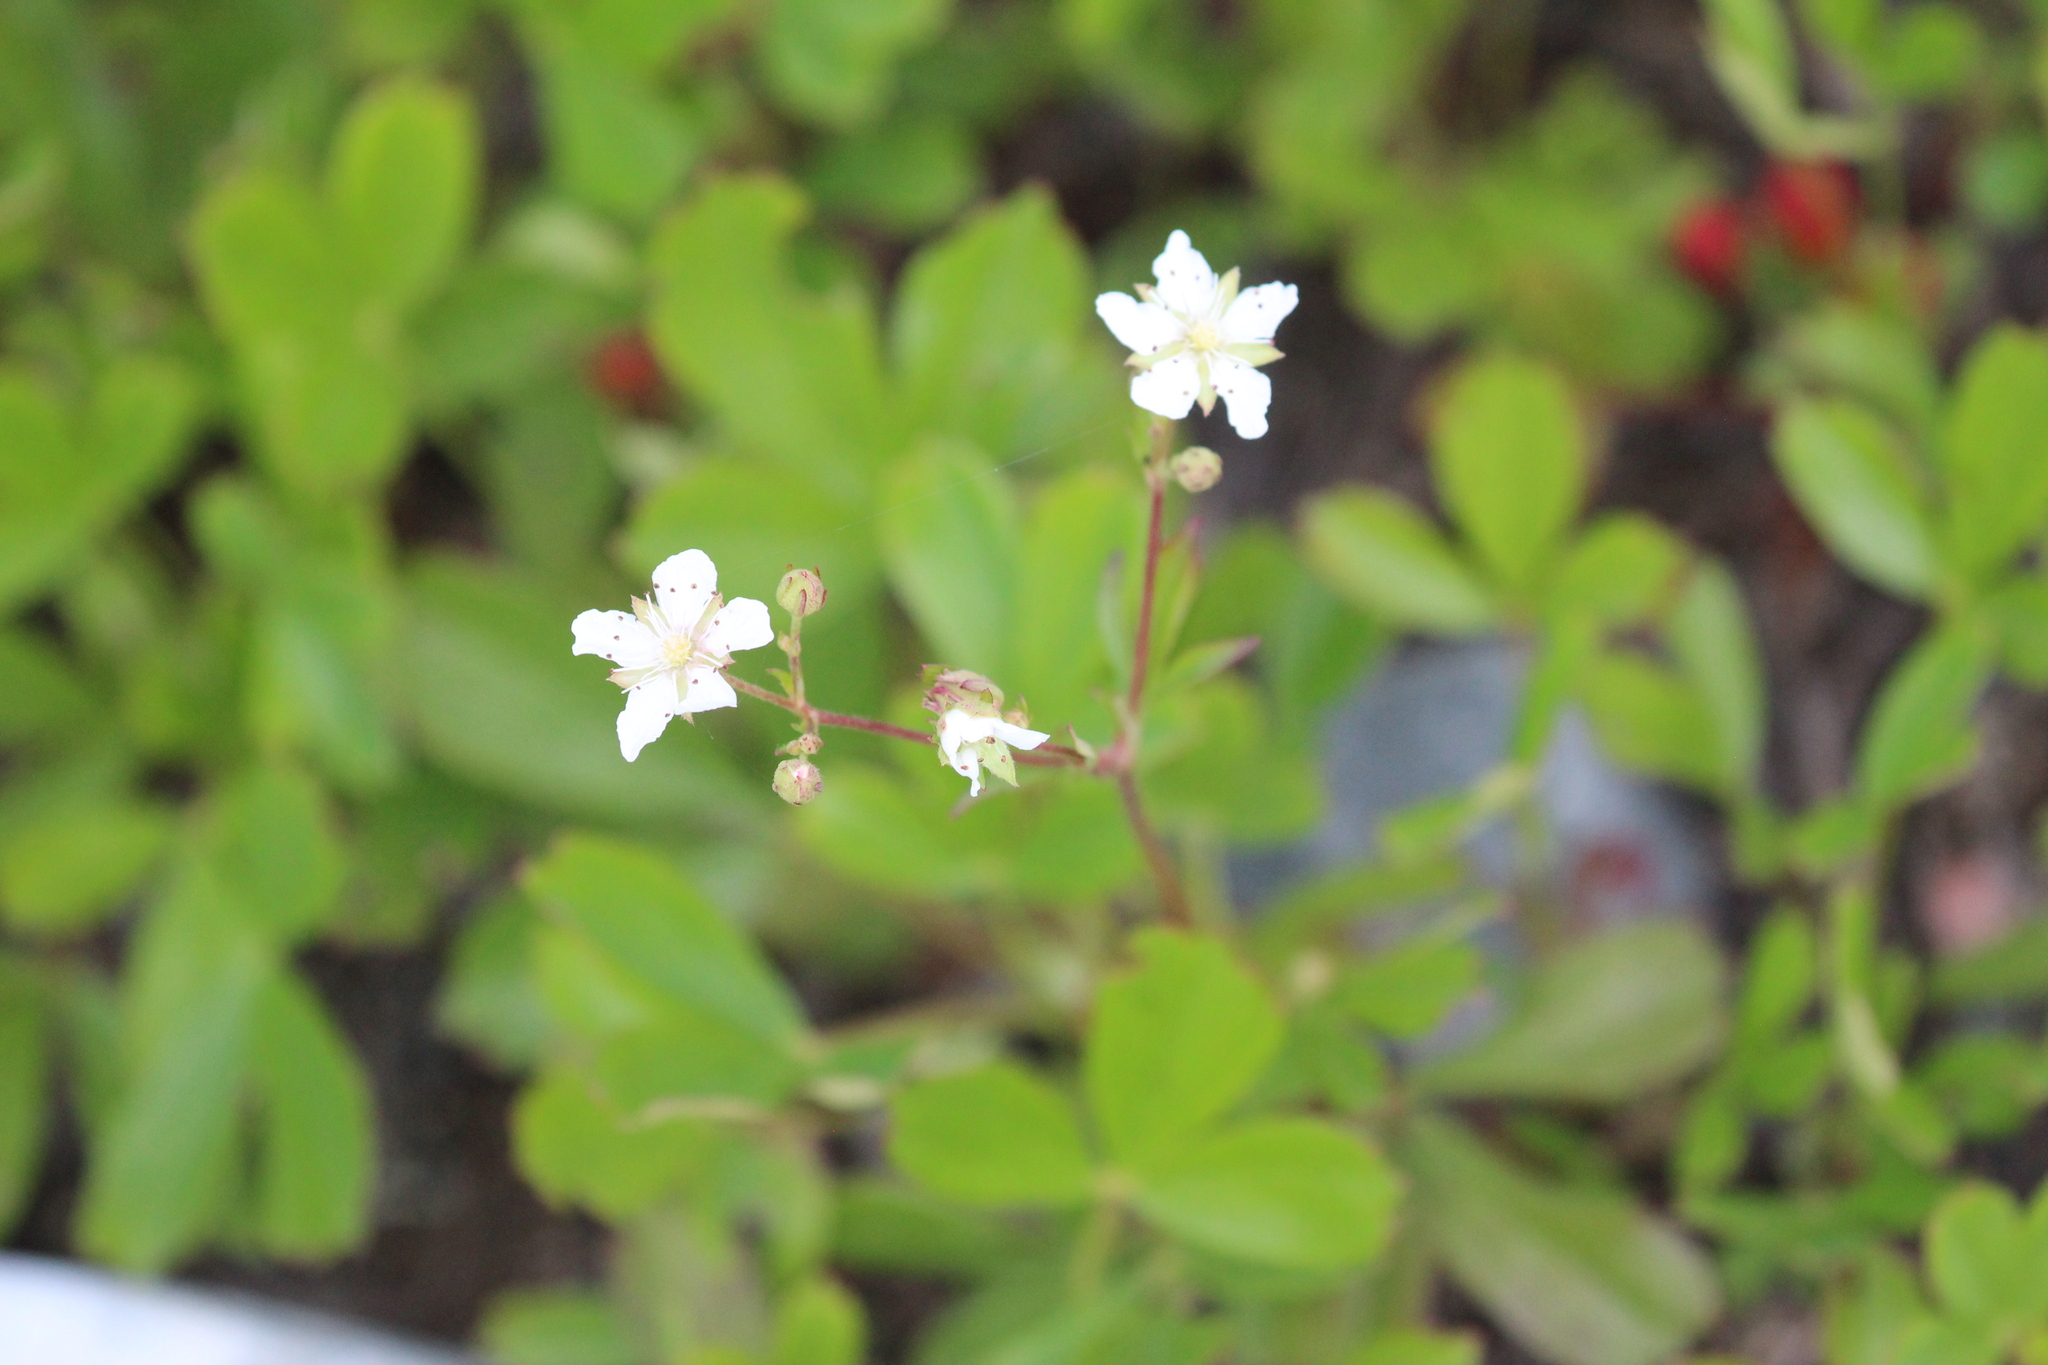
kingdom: Plantae
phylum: Tracheophyta
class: Magnoliopsida
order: Rosales
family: Rosaceae
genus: Sibbaldia
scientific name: Sibbaldia tridentata
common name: Three-toothed cinquefoil
